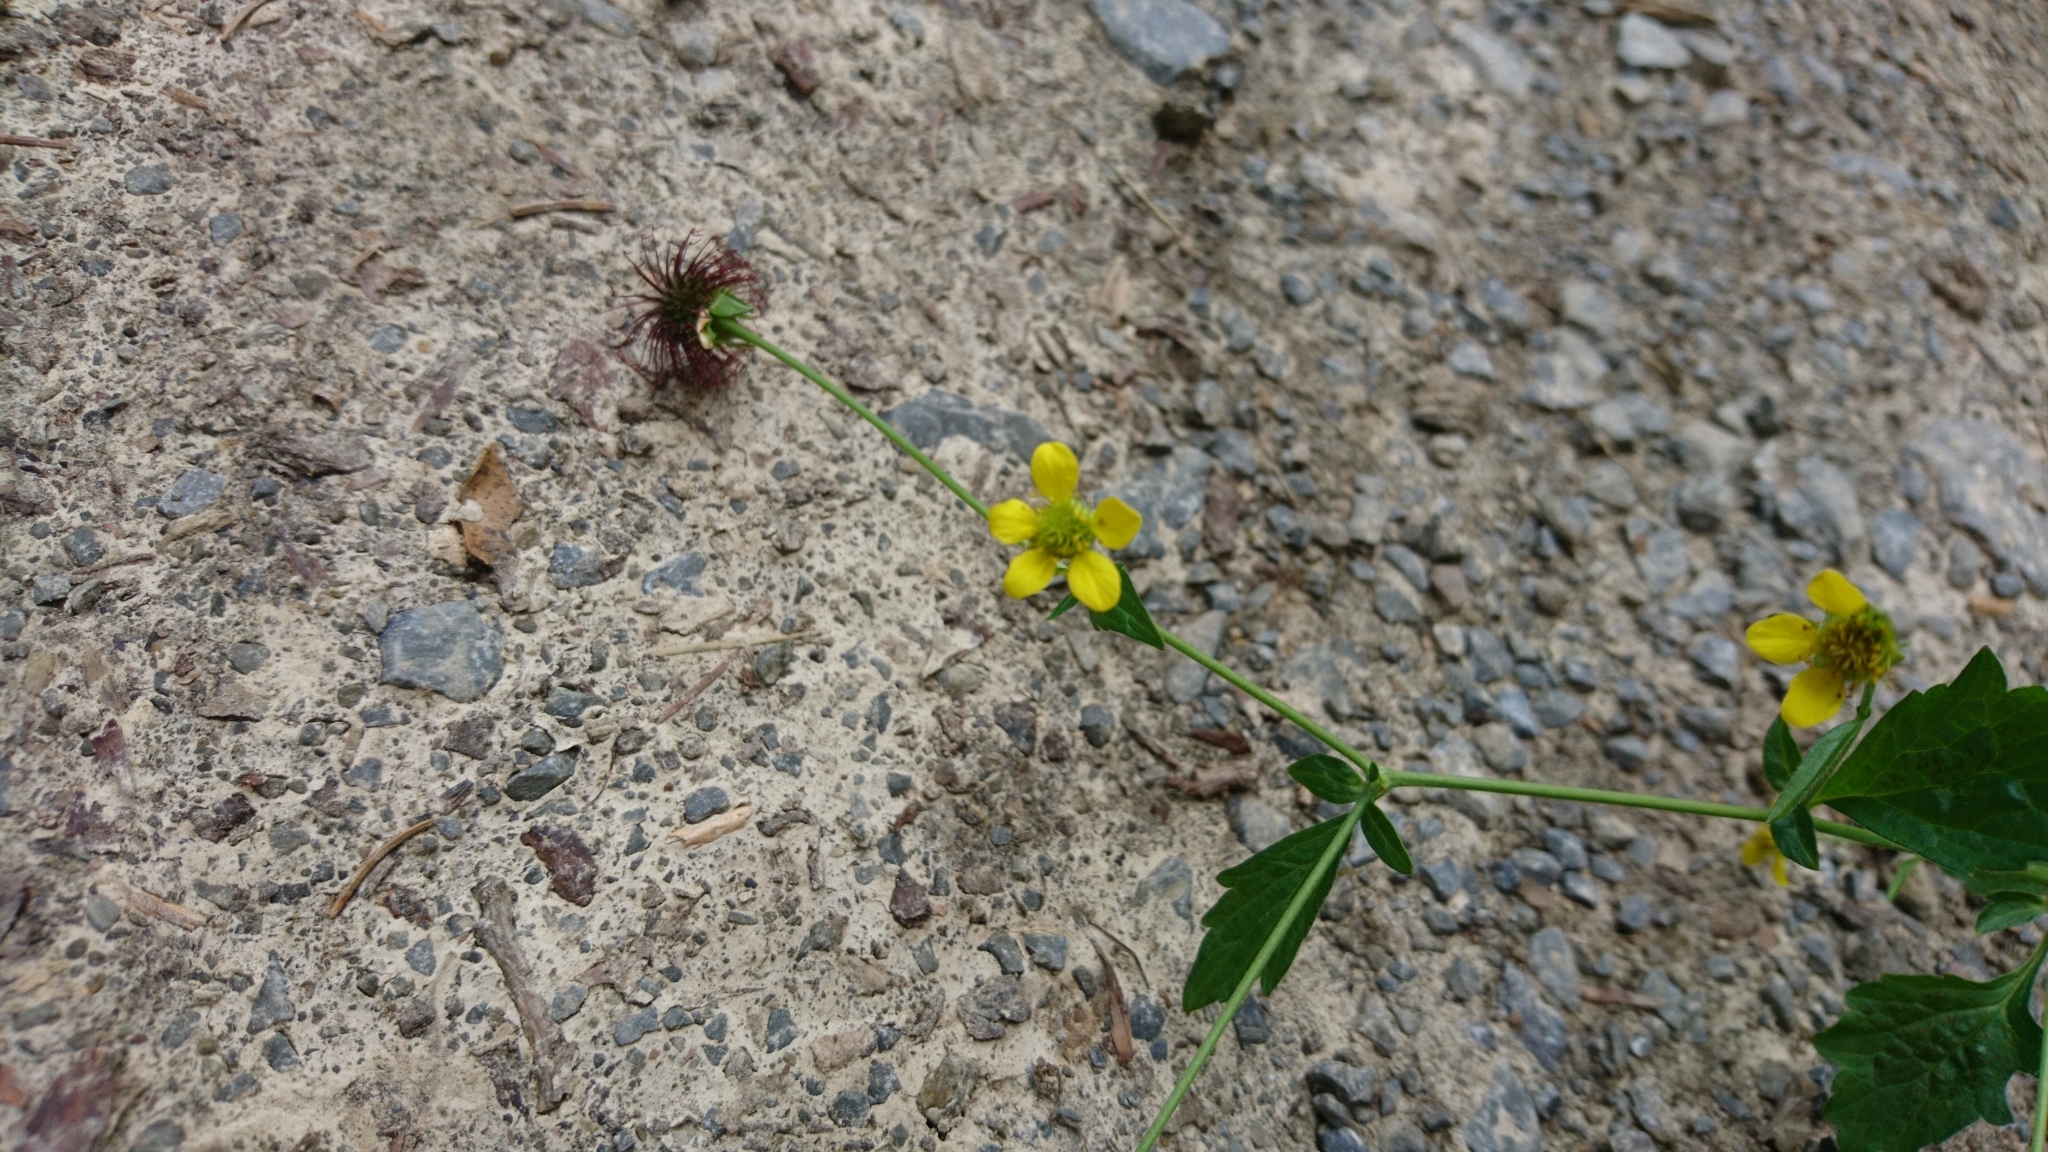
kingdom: Plantae
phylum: Tracheophyta
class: Magnoliopsida
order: Rosales
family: Rosaceae
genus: Geum
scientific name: Geum urbanum
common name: Wood avens
